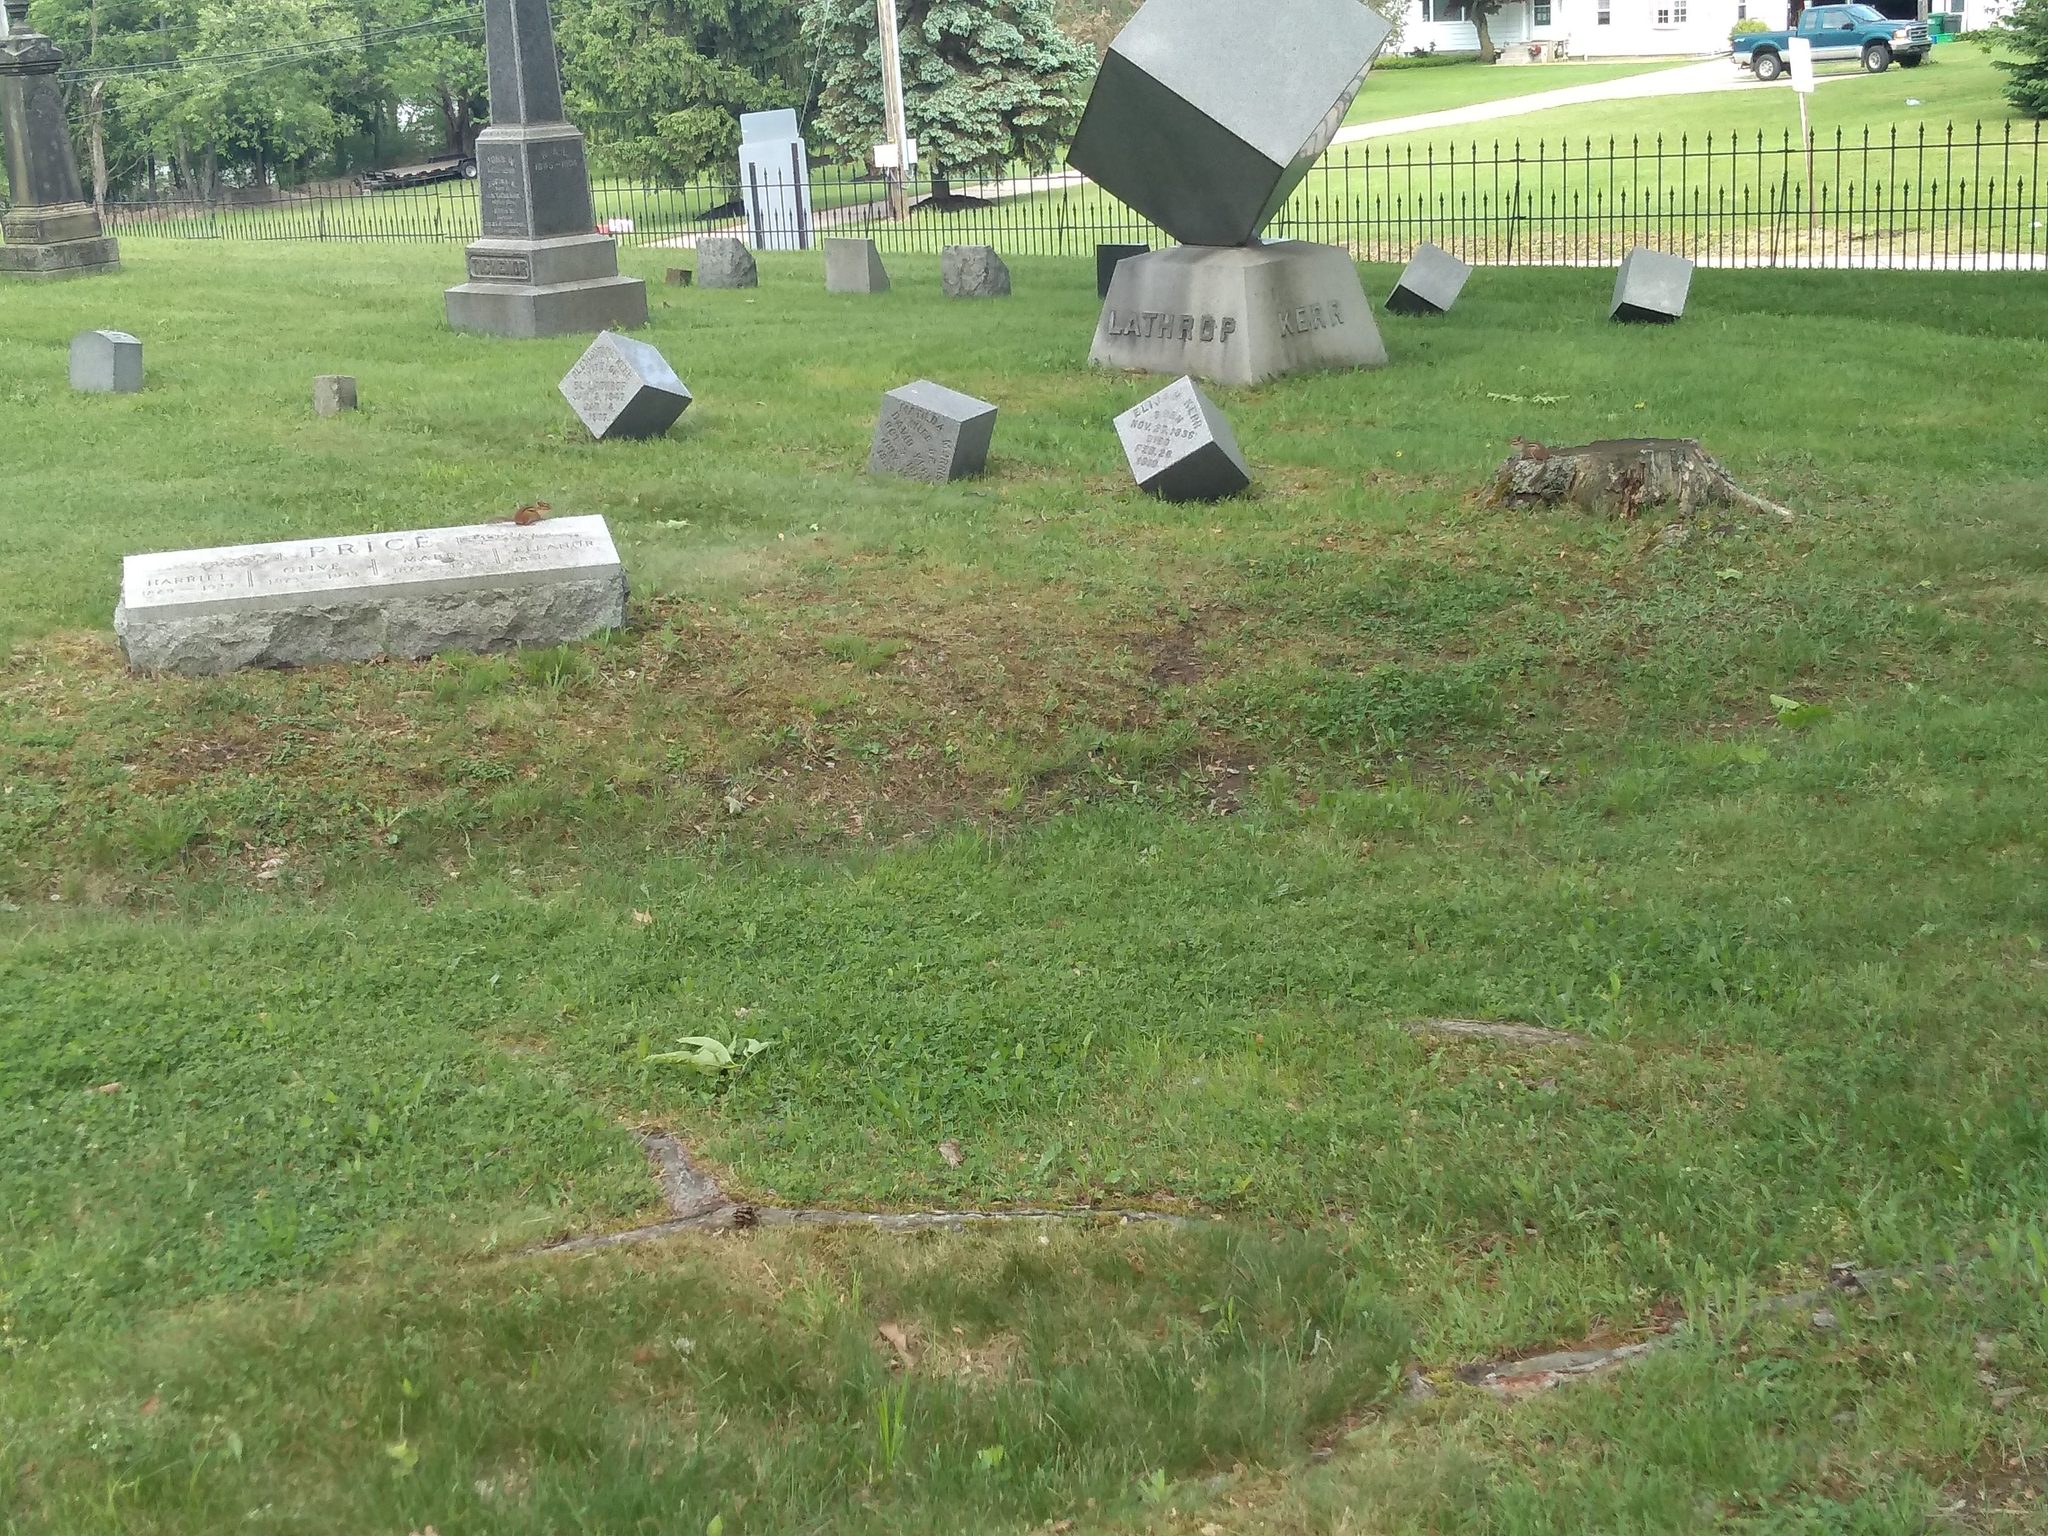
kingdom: Animalia
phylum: Chordata
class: Mammalia
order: Rodentia
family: Sciuridae
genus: Tamias
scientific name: Tamias striatus
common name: Eastern chipmunk
